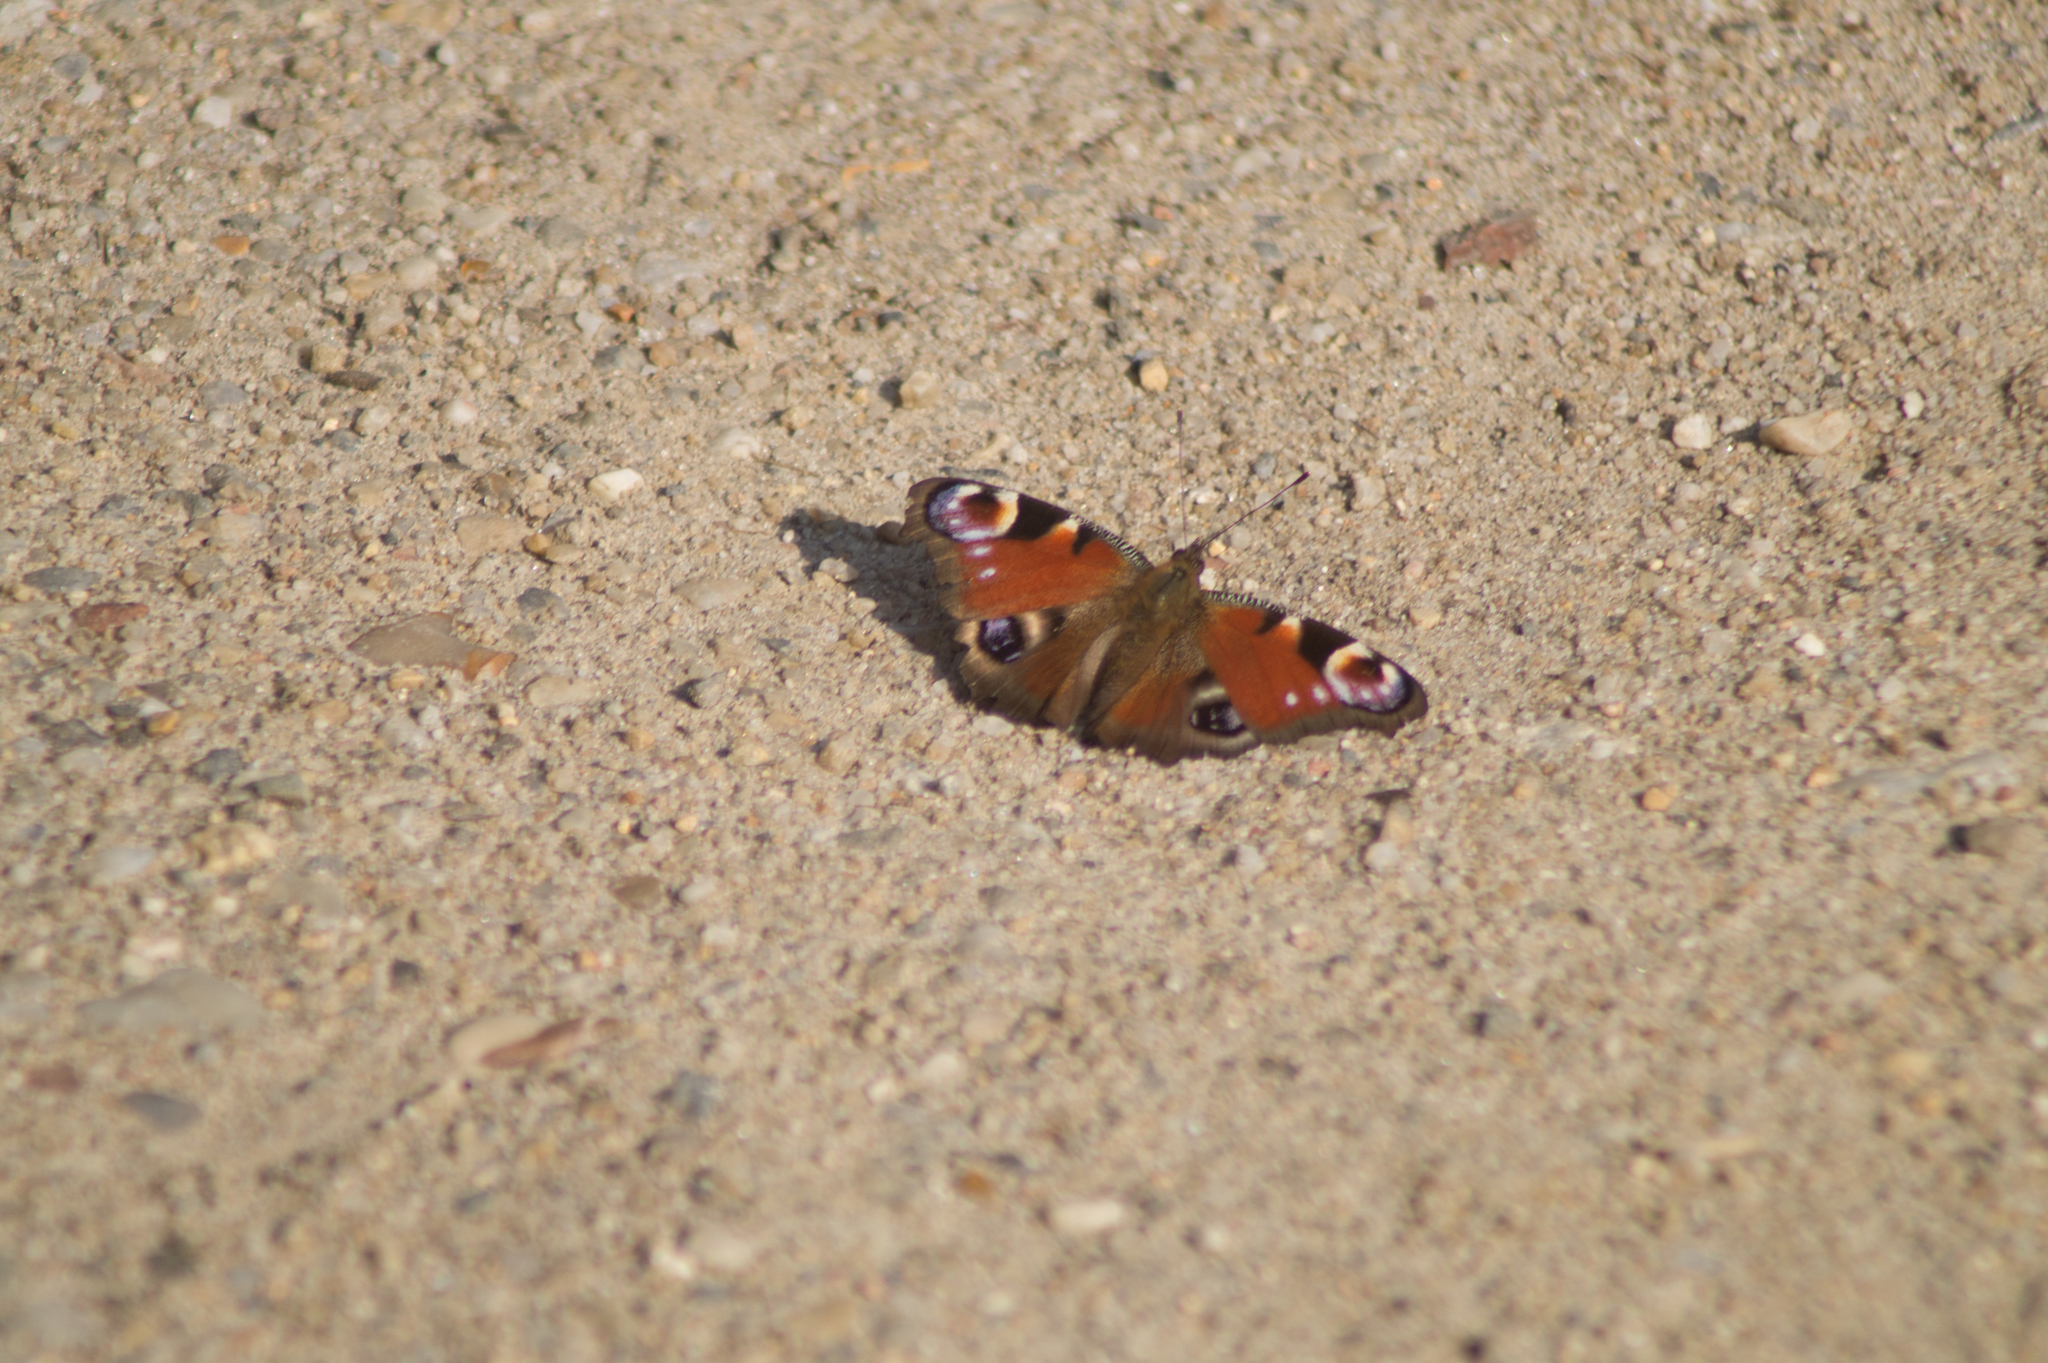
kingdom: Animalia
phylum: Arthropoda
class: Insecta
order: Lepidoptera
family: Nymphalidae
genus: Aglais
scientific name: Aglais io
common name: Peacock
